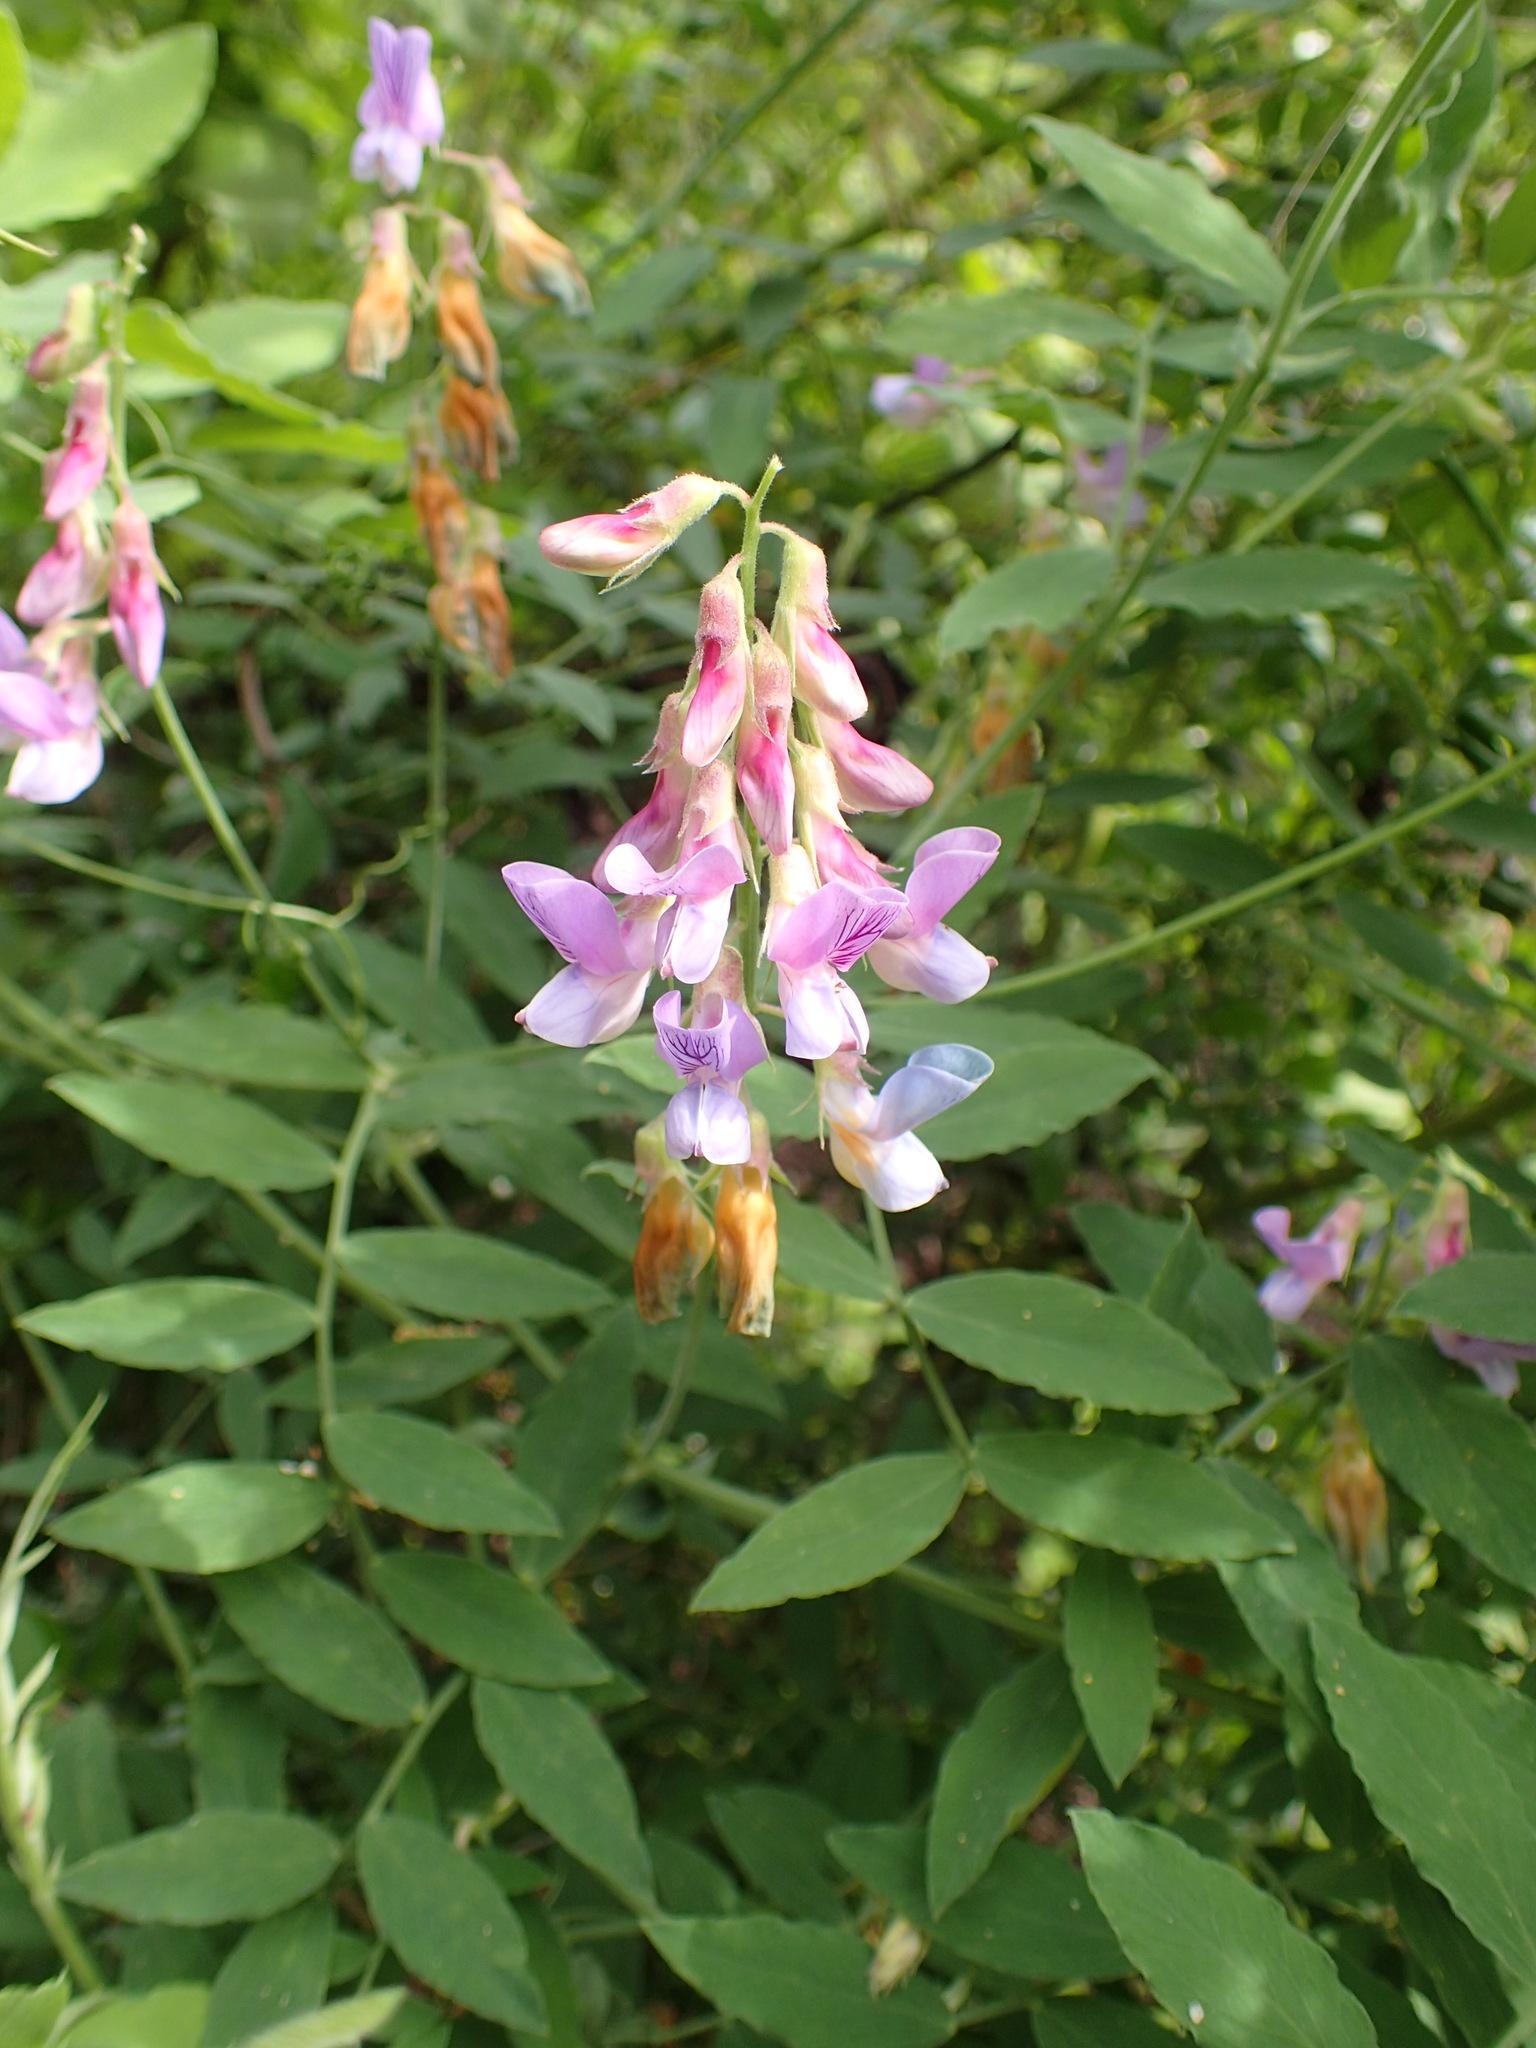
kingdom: Plantae
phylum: Tracheophyta
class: Magnoliopsida
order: Fabales
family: Fabaceae
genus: Lathyrus
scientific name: Lathyrus vestitus
